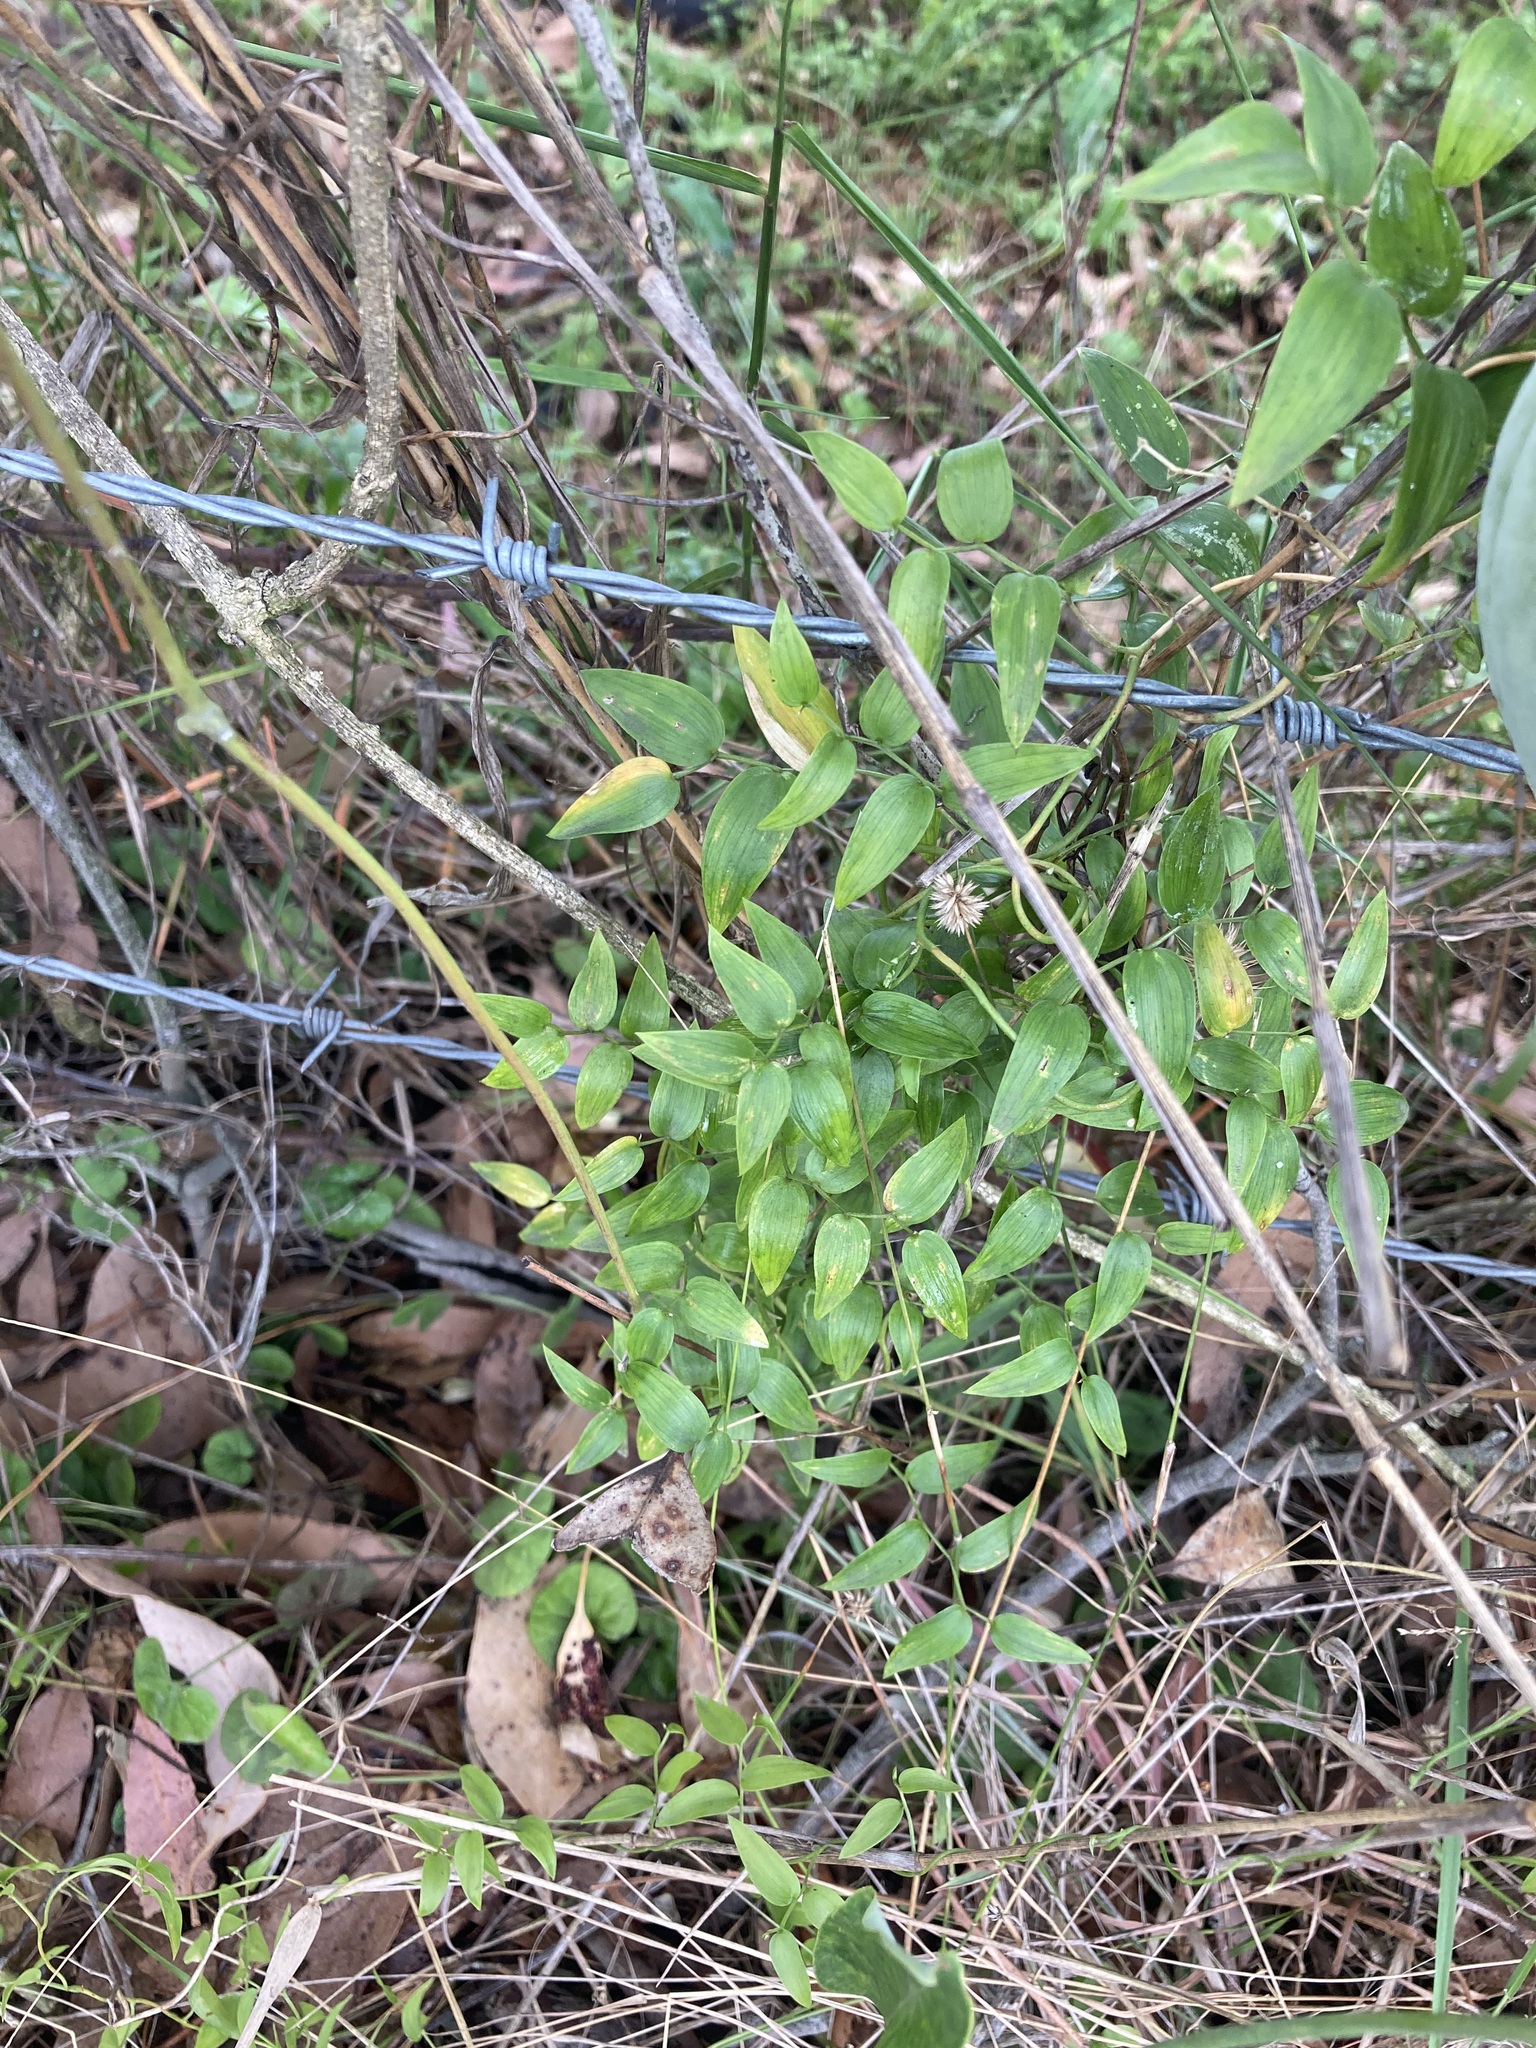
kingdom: Plantae
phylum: Tracheophyta
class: Liliopsida
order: Asparagales
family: Asparagaceae
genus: Asparagus
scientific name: Asparagus asparagoides
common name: African asparagus fern
